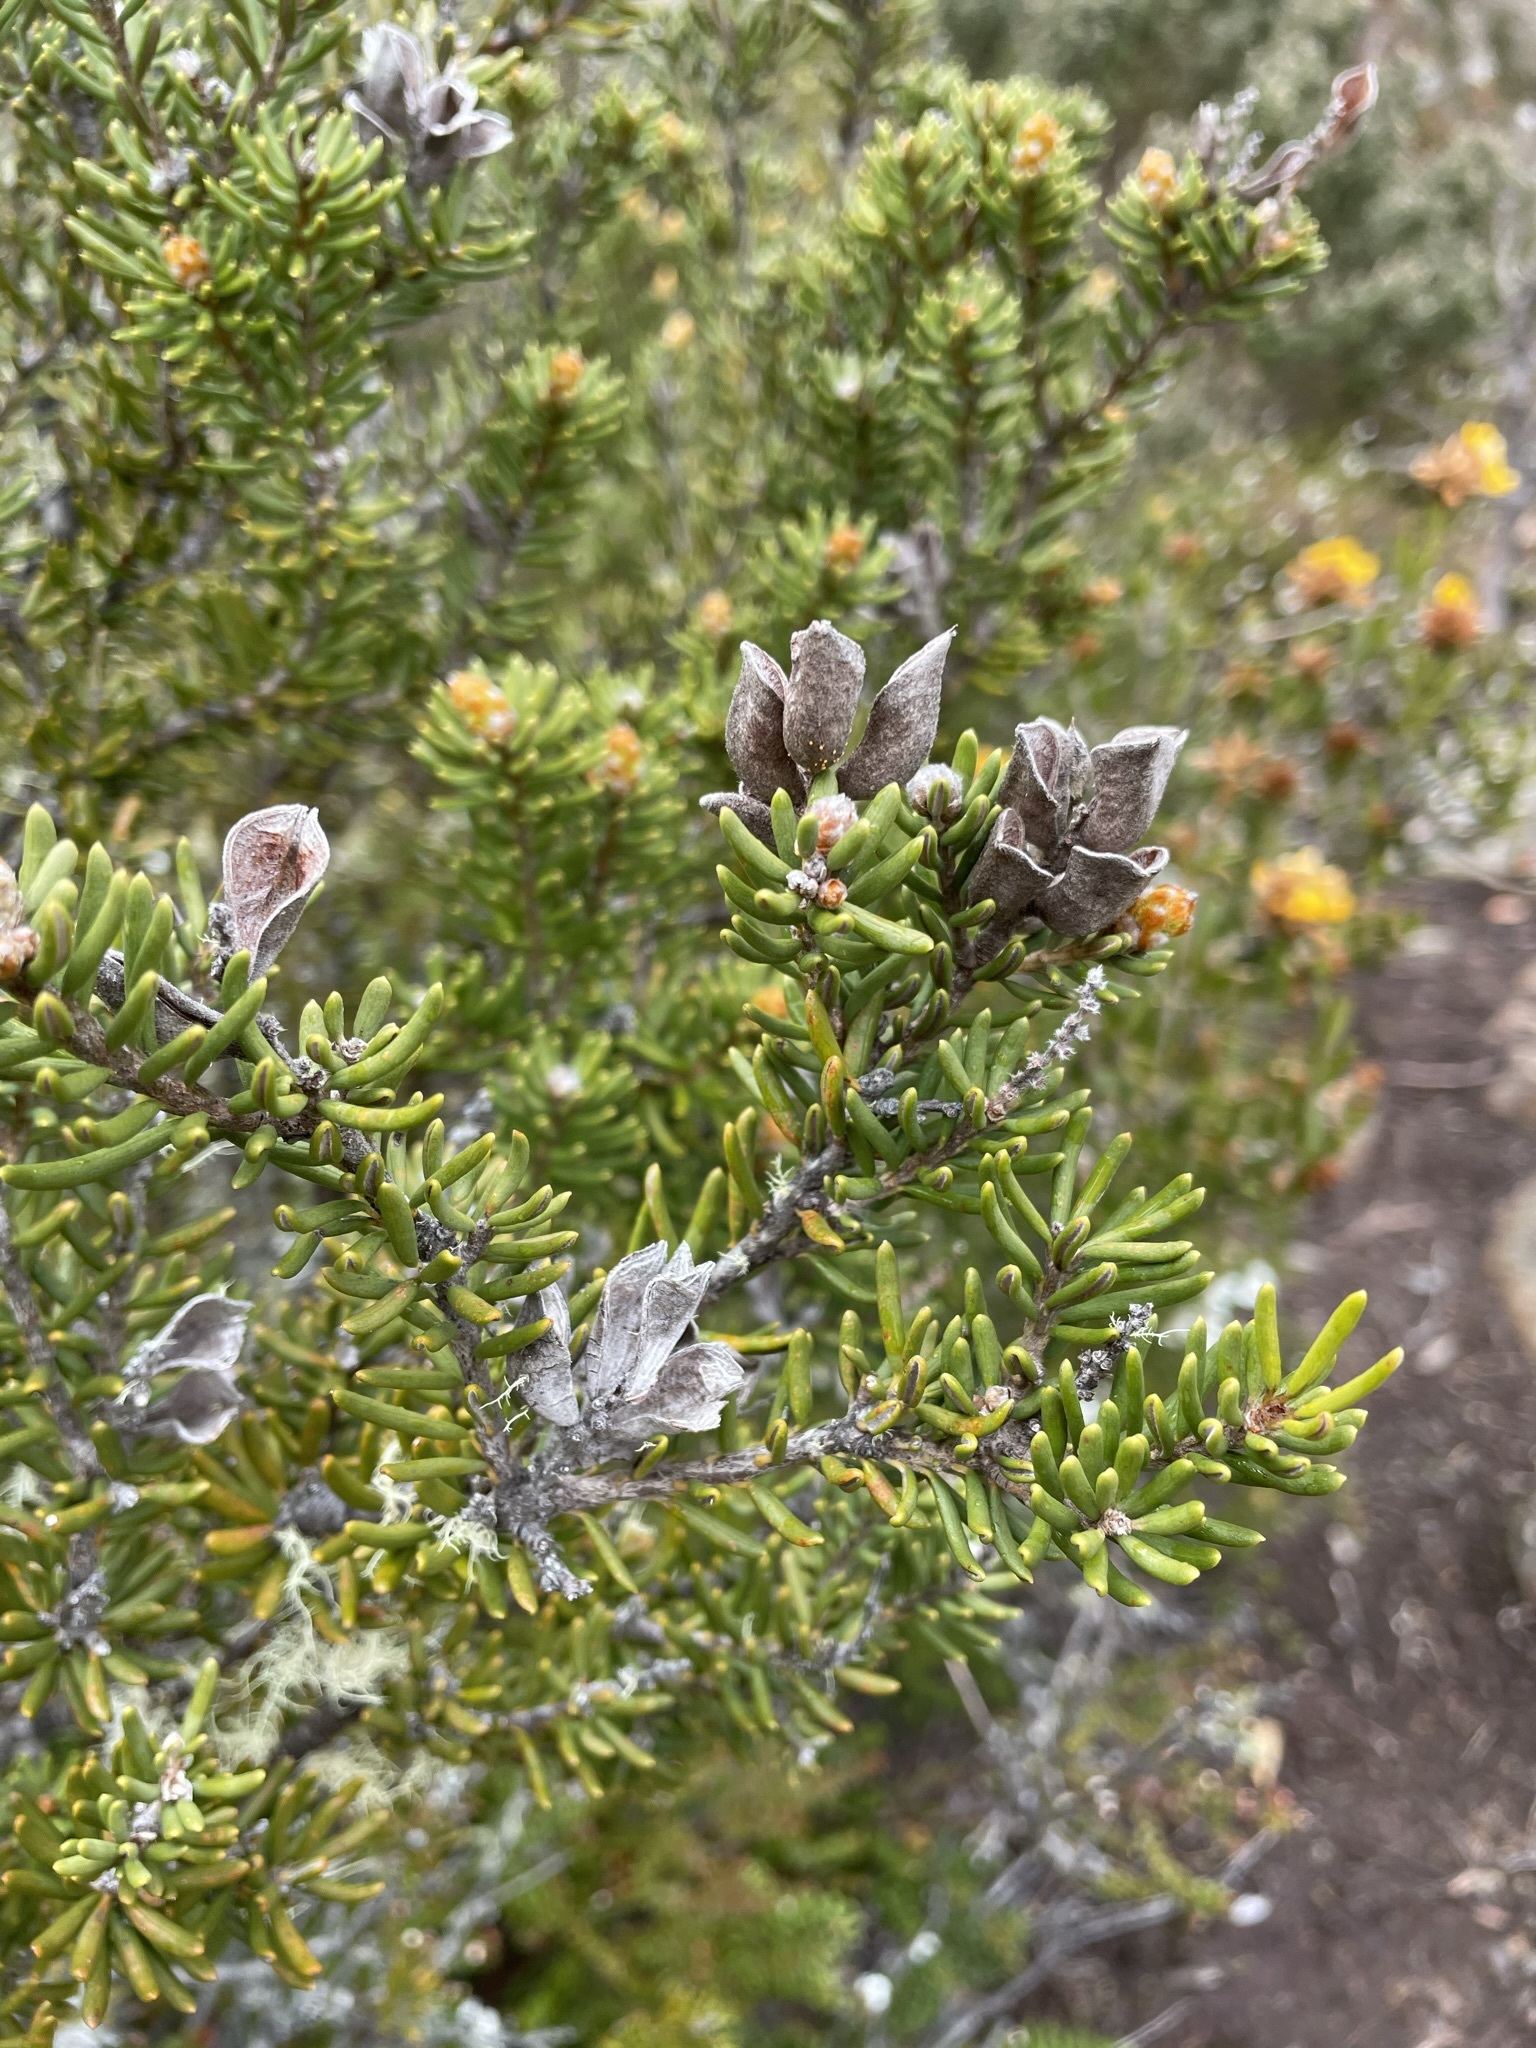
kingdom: Plantae
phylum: Tracheophyta
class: Magnoliopsida
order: Proteales
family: Proteaceae
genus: Orites
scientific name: Orites revolutus
